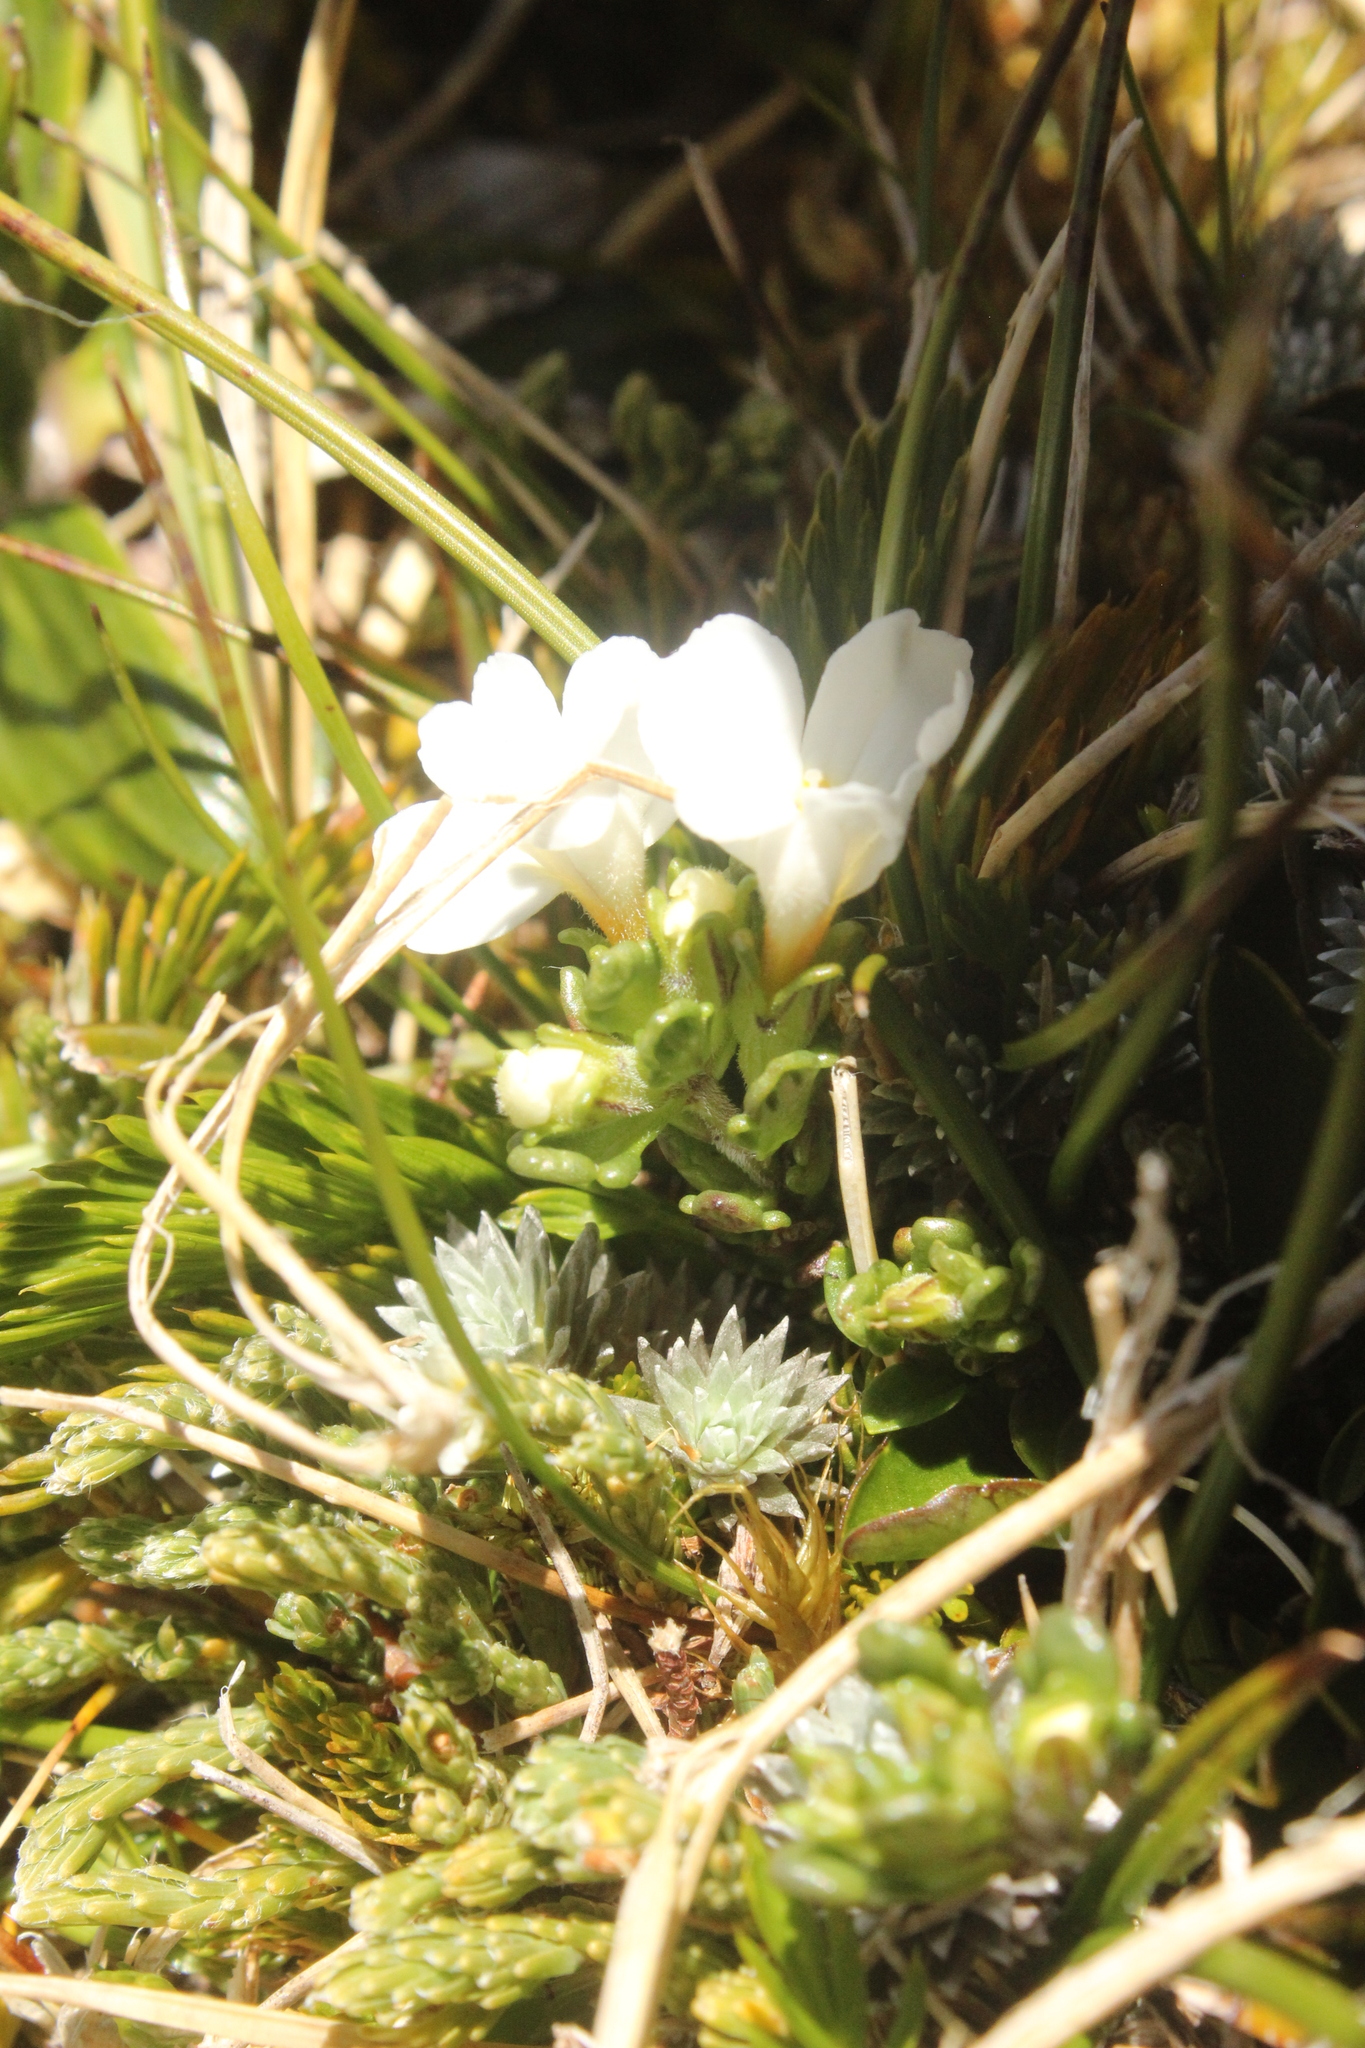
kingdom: Plantae
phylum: Tracheophyta
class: Magnoliopsida
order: Lamiales
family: Orobanchaceae
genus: Euphrasia
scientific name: Euphrasia revoluta
